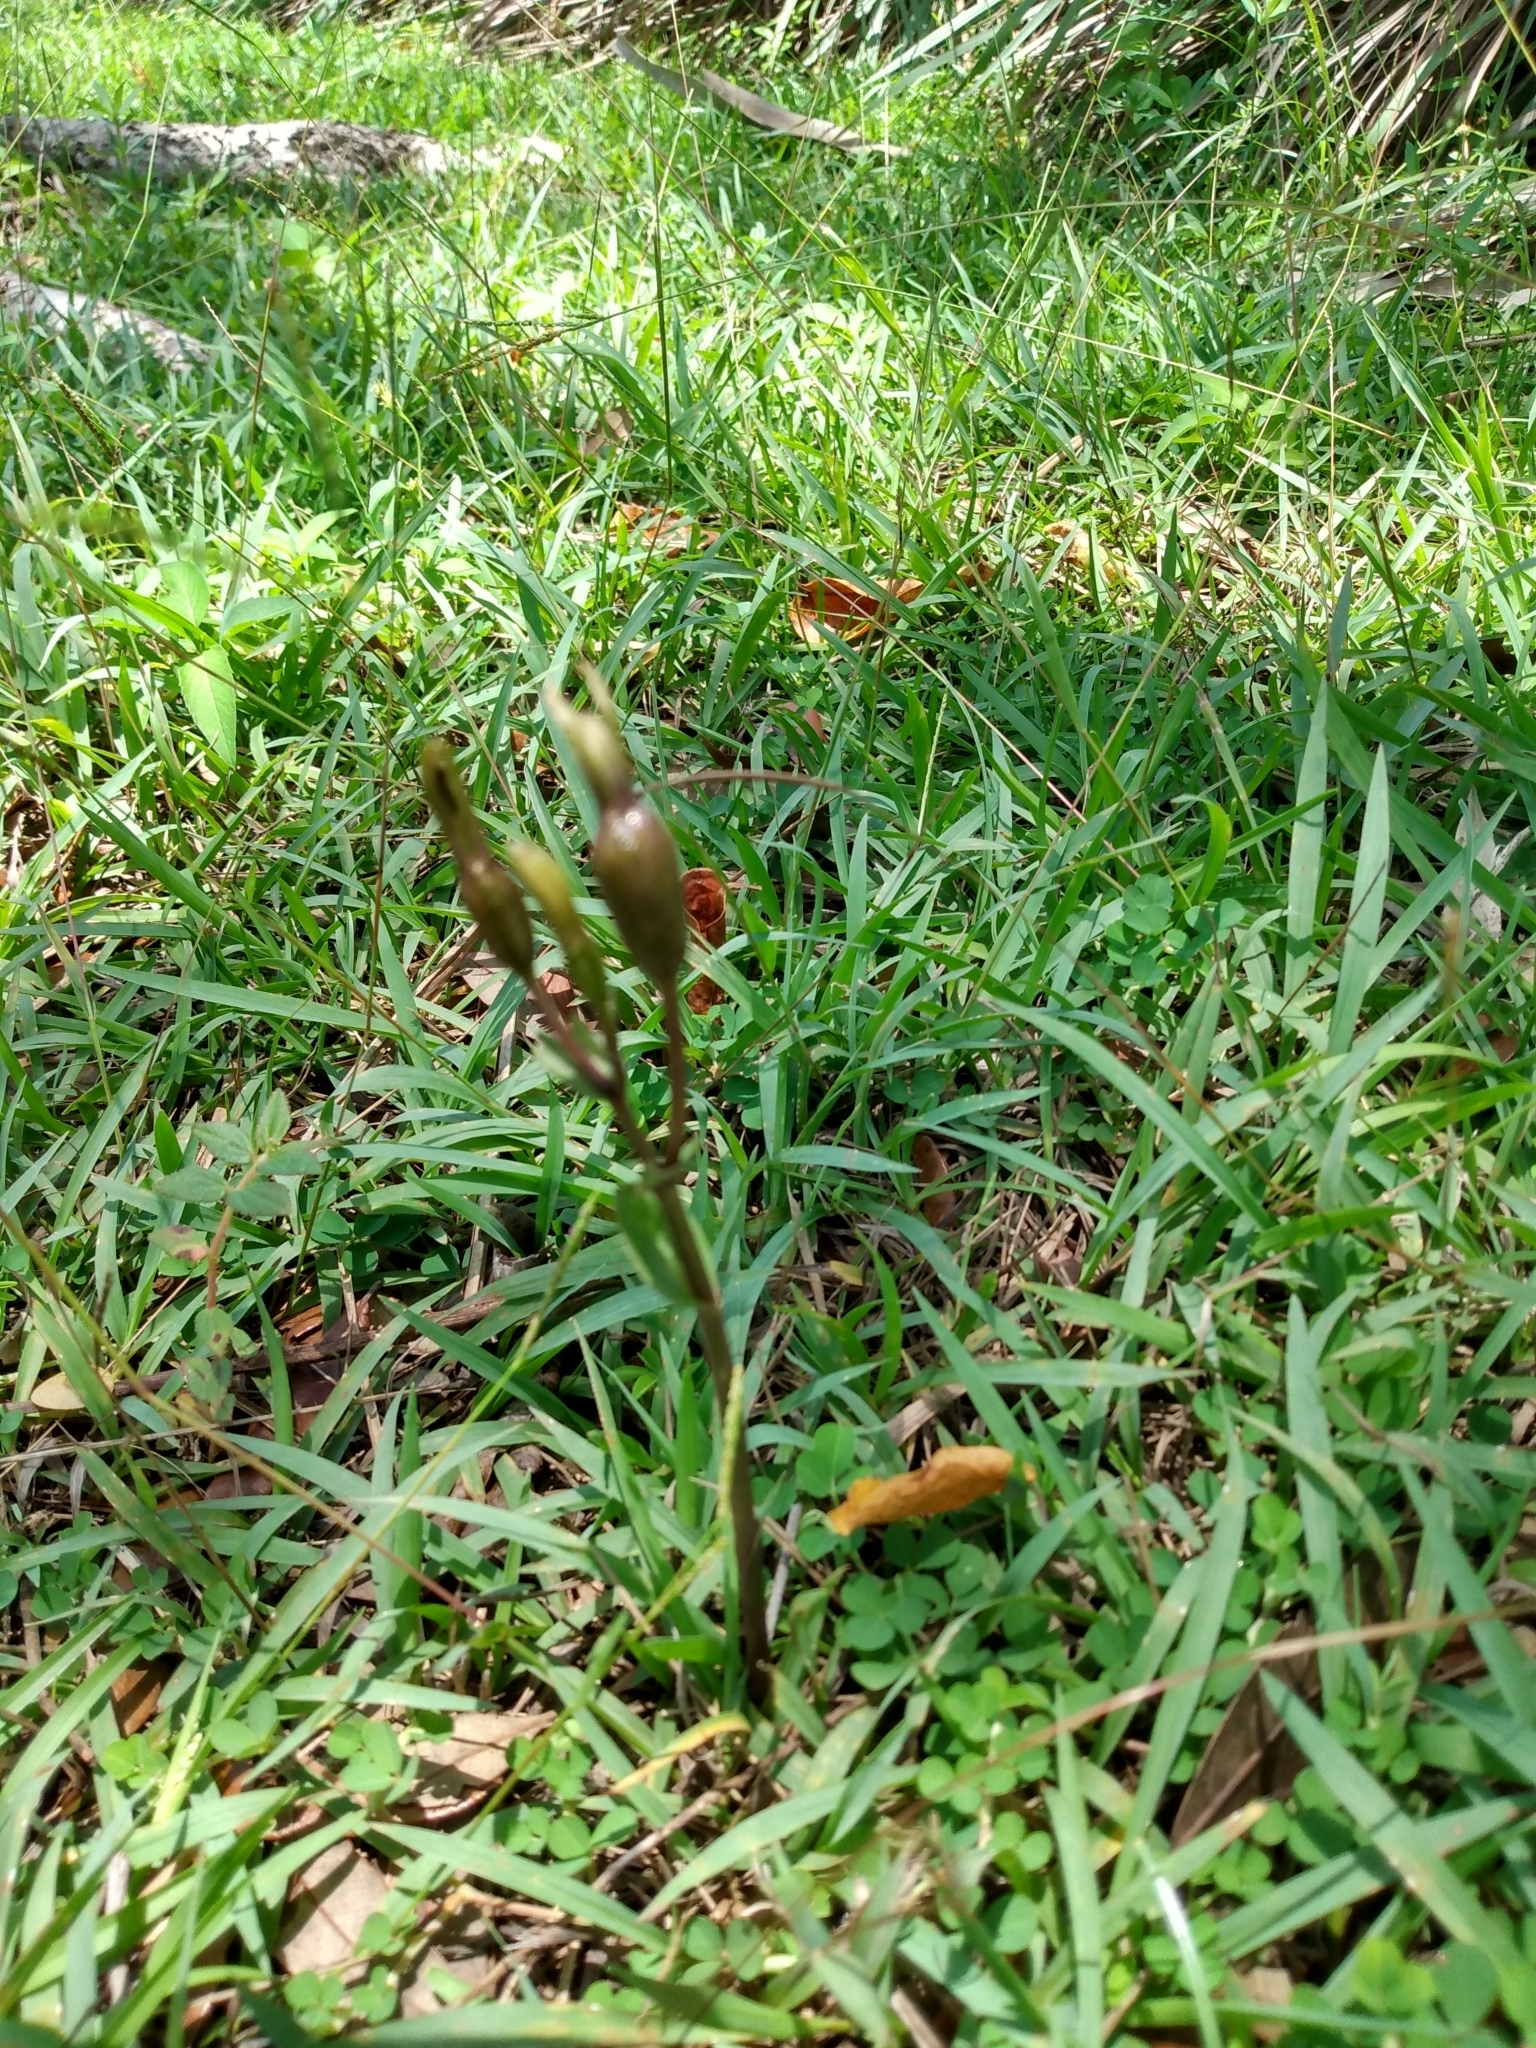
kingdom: Plantae
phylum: Tracheophyta
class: Liliopsida
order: Asparagales
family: Orchidaceae
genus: Triphora
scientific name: Triphora gentianoides
